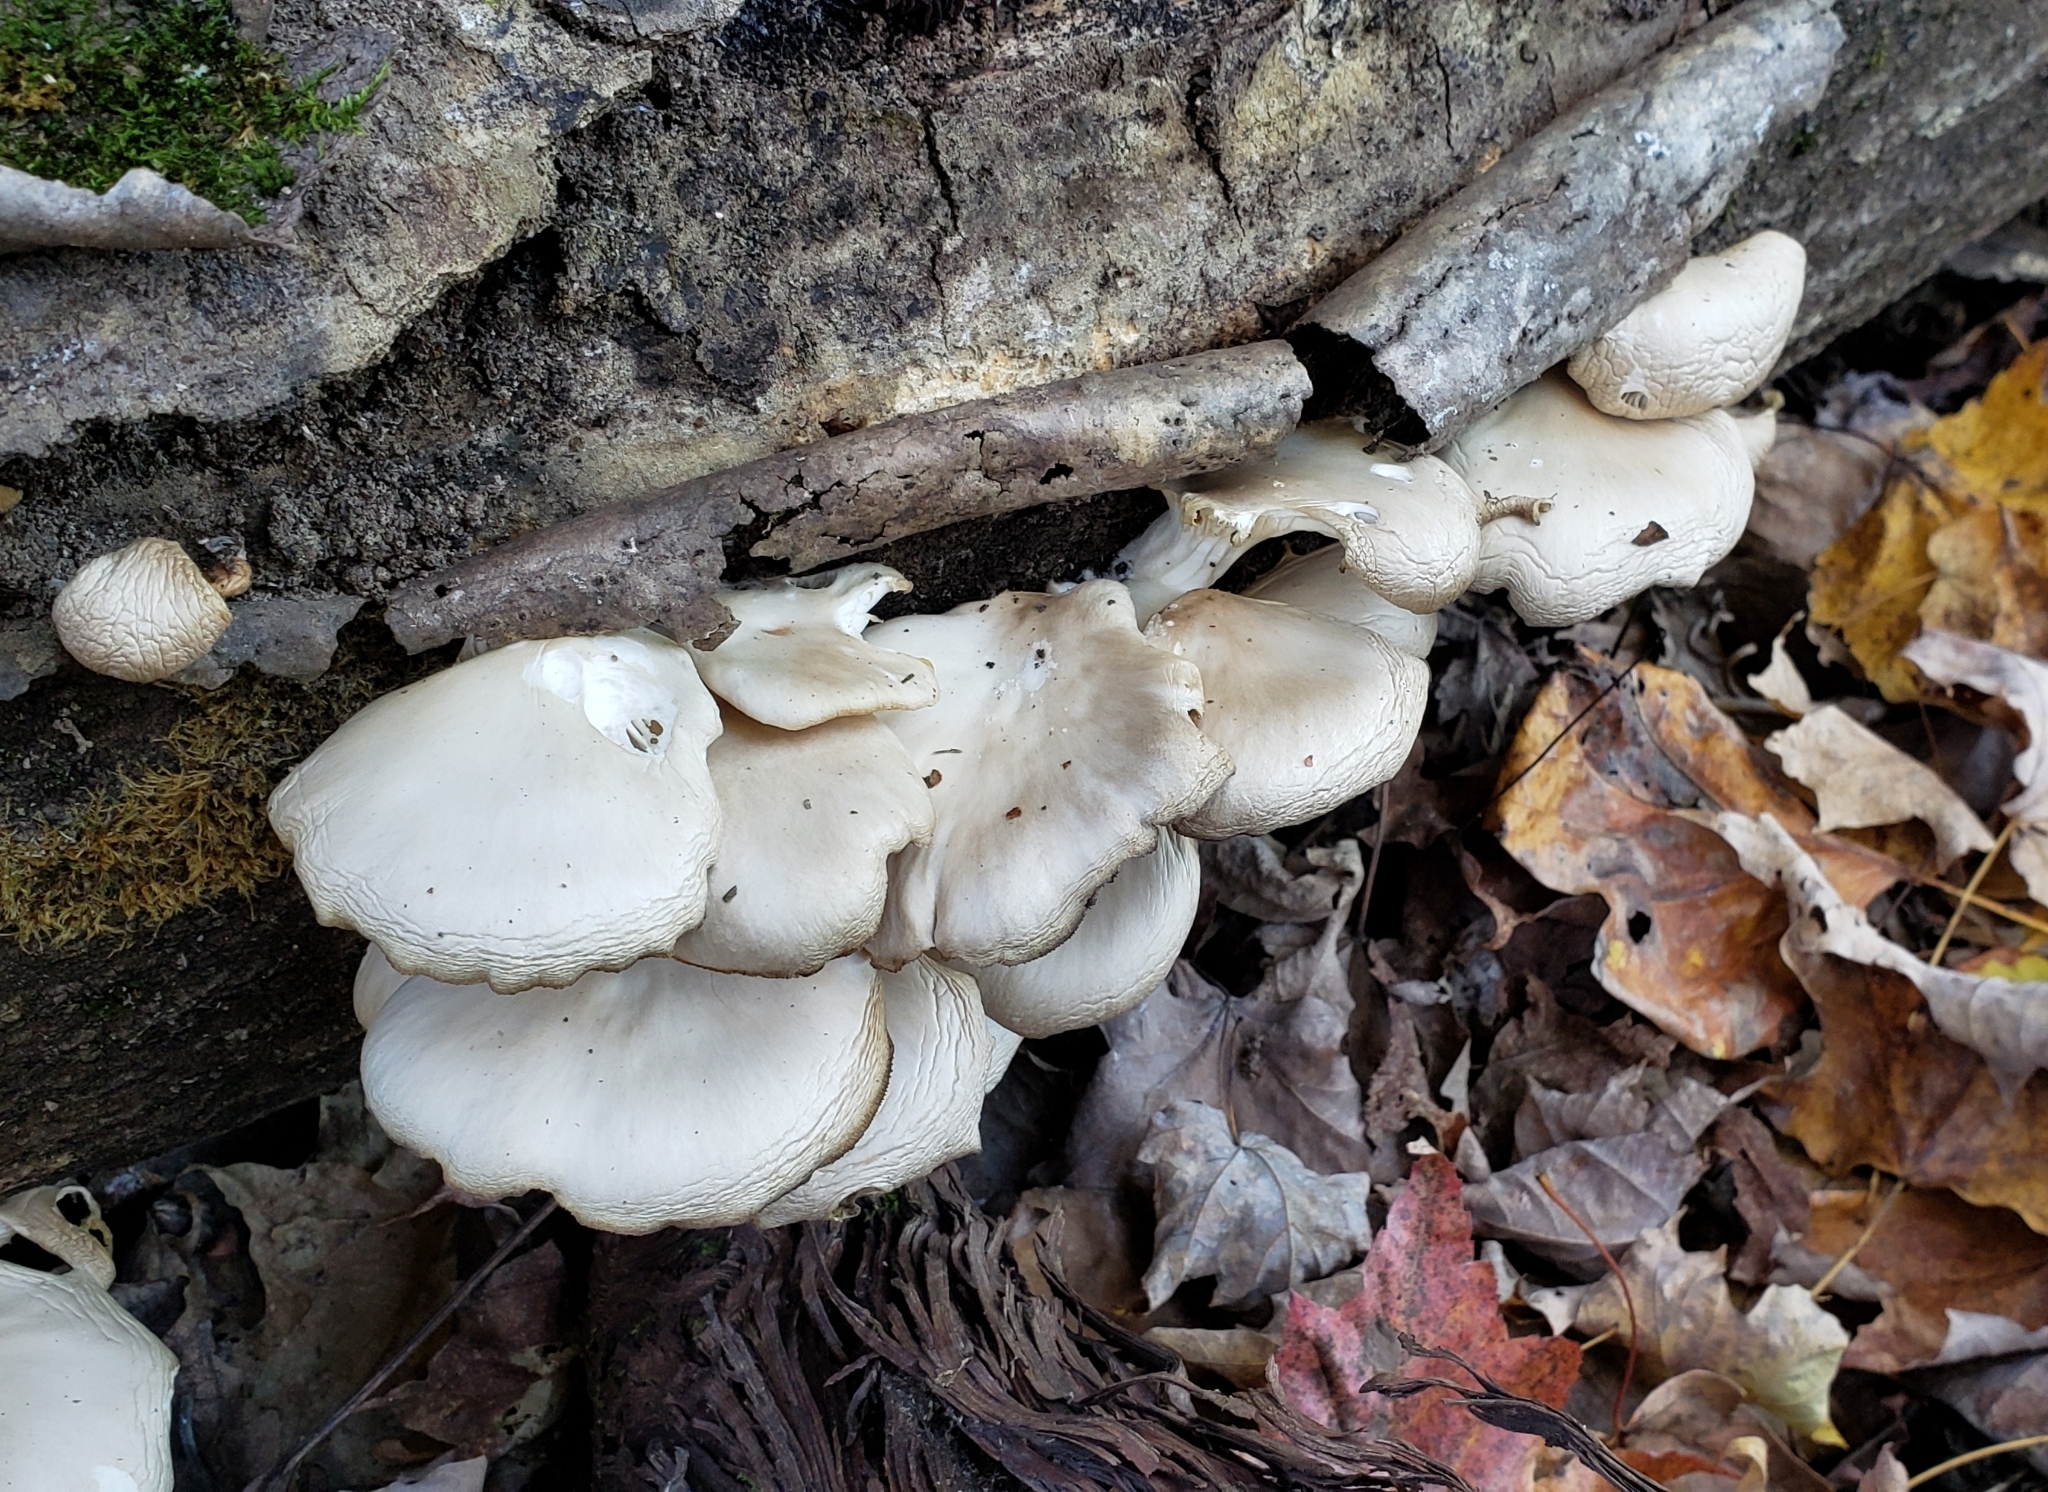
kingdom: Fungi
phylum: Basidiomycota
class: Agaricomycetes
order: Agaricales
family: Pleurotaceae
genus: Pleurotus
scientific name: Pleurotus ostreatus
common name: Oyster mushroom
